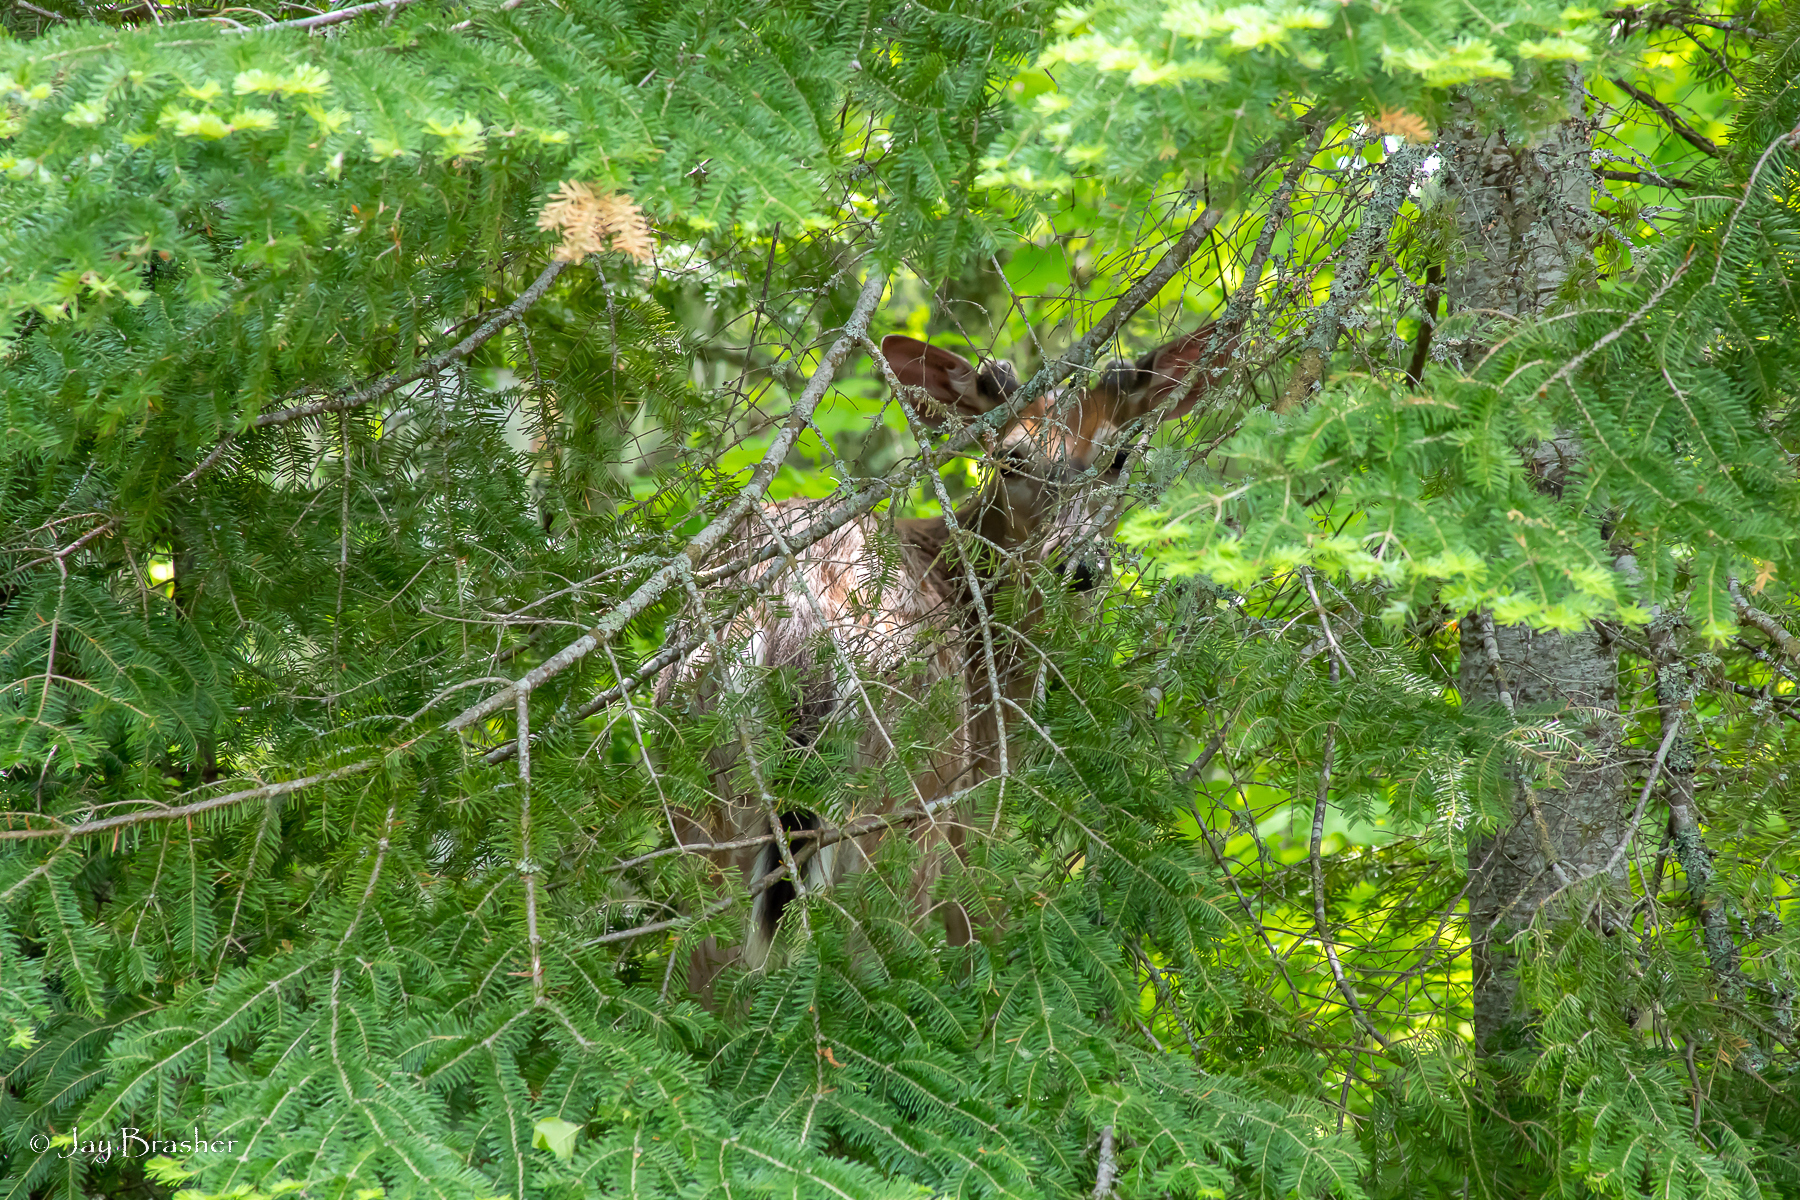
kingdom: Animalia
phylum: Chordata
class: Mammalia
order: Artiodactyla
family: Cervidae
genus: Odocoileus
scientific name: Odocoileus virginianus
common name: White-tailed deer
